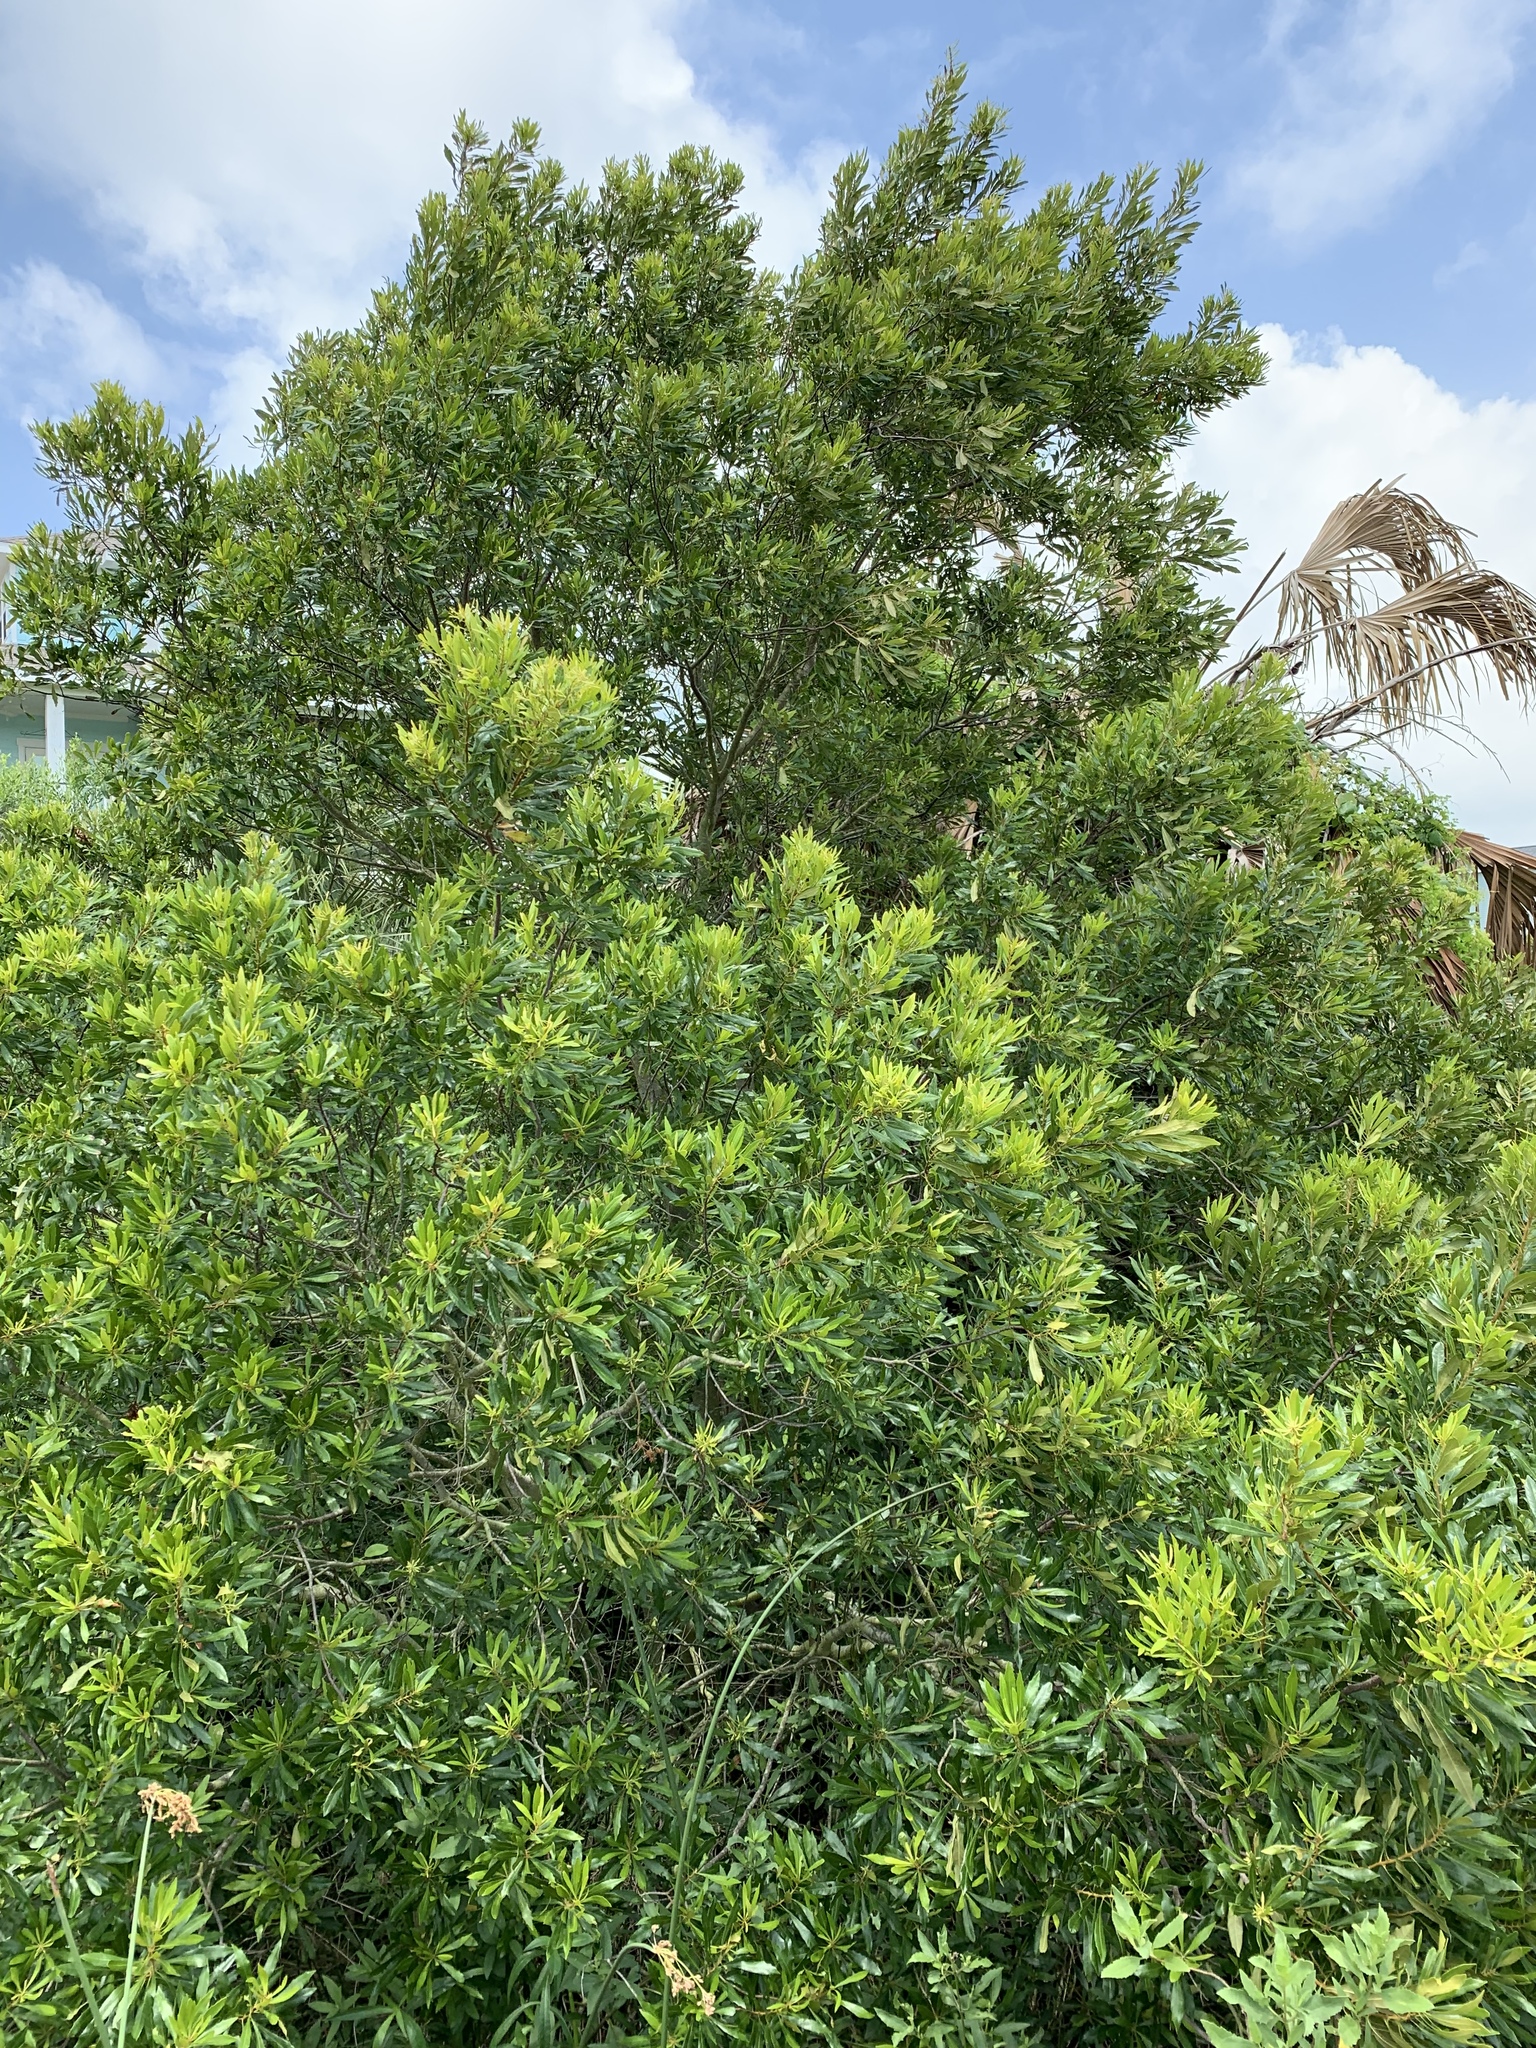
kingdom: Plantae
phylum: Tracheophyta
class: Magnoliopsida
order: Fagales
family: Myricaceae
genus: Morella
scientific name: Morella cerifera
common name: Wax myrtle
